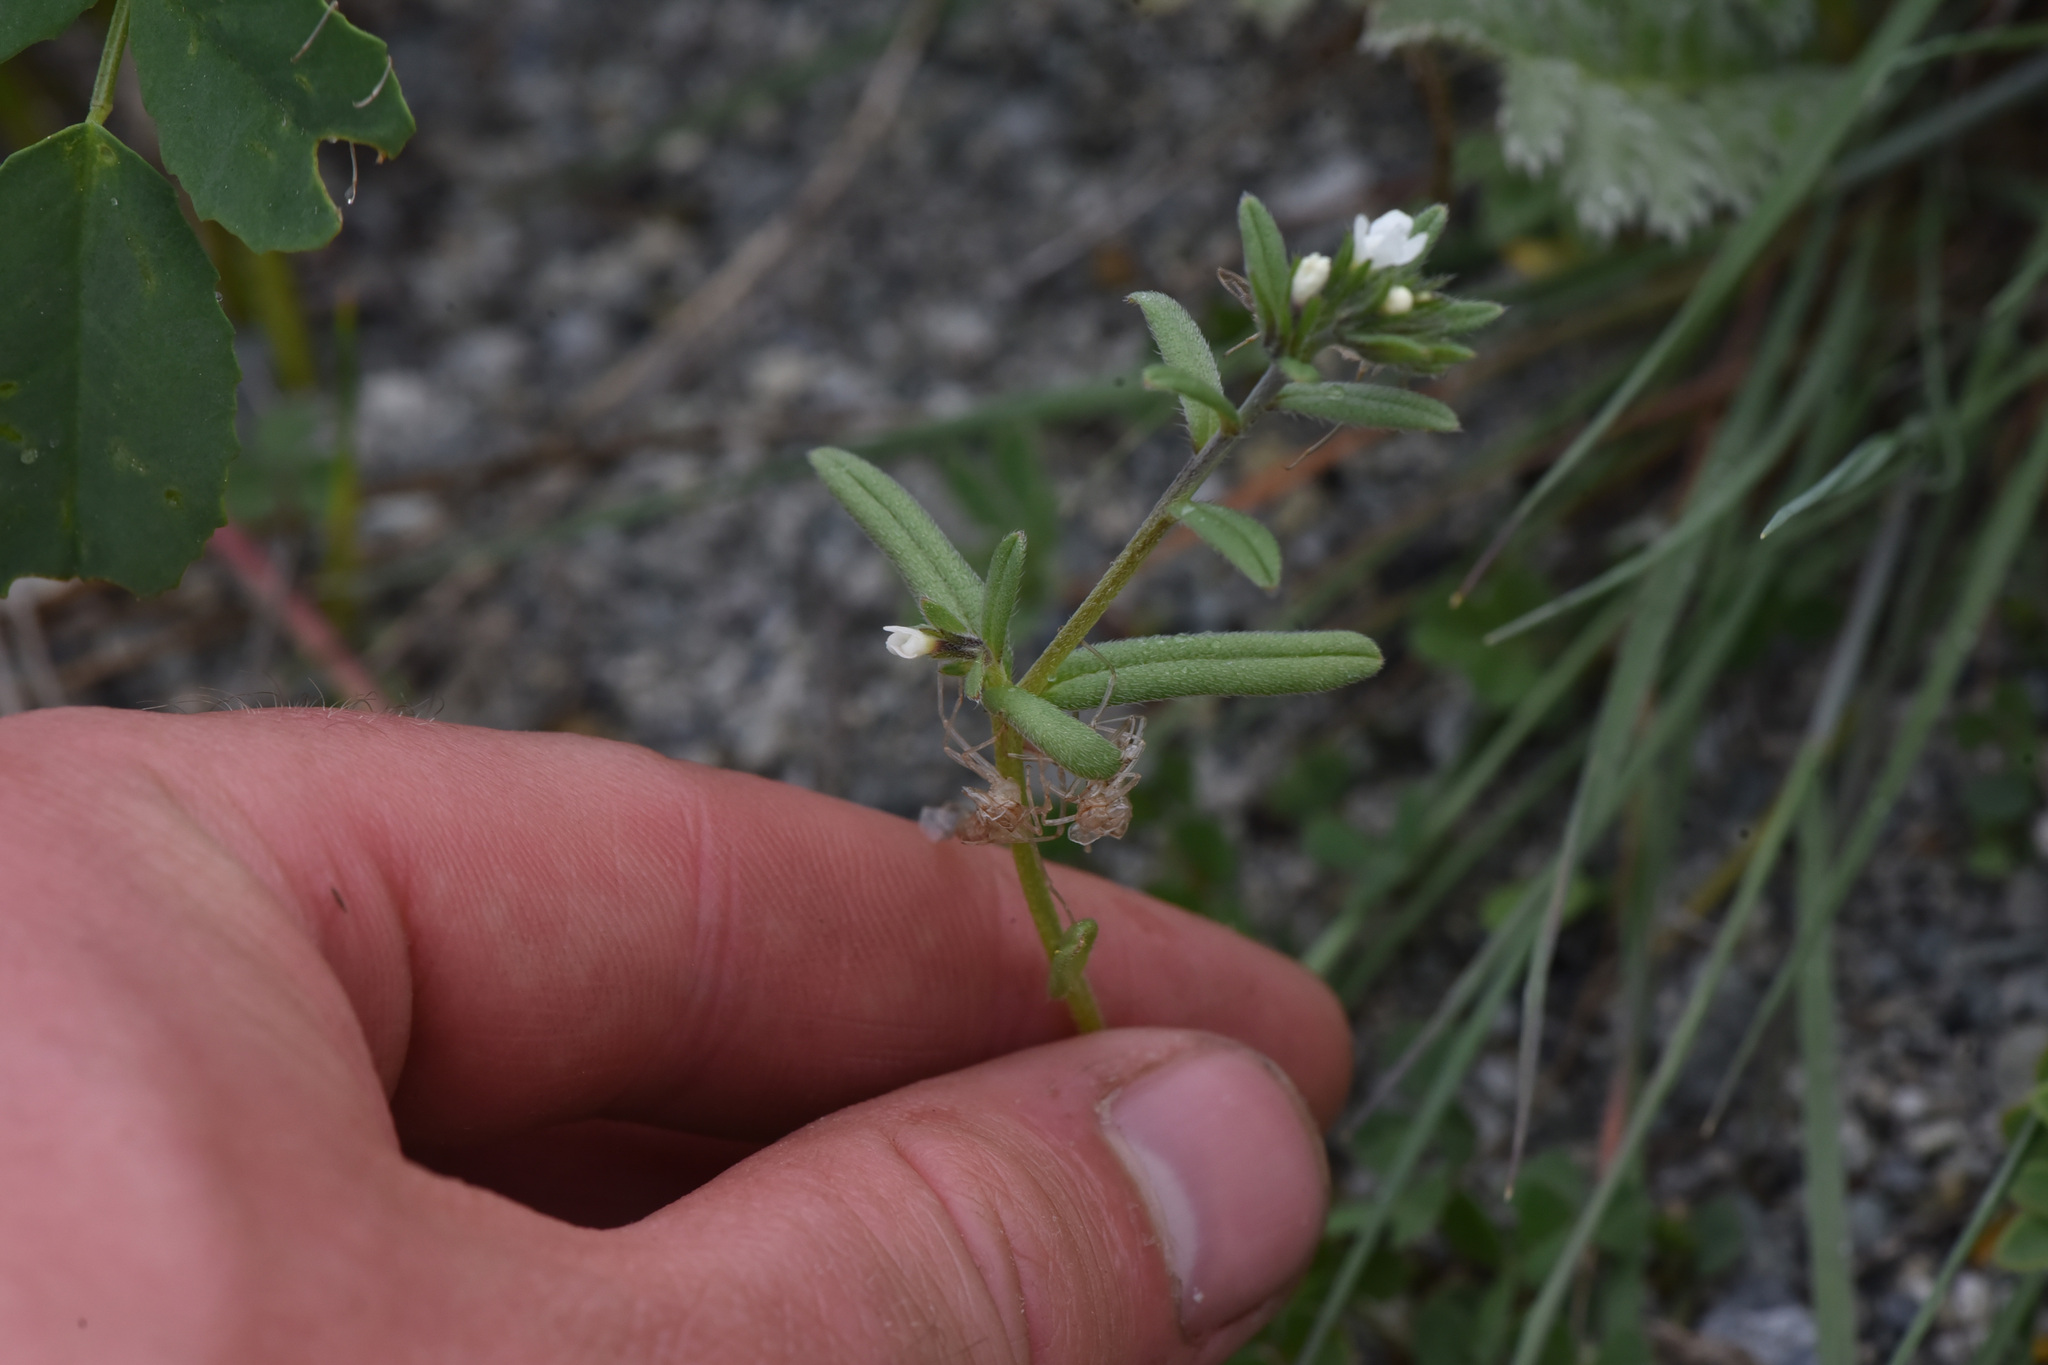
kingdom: Plantae
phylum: Tracheophyta
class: Magnoliopsida
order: Boraginales
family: Boraginaceae
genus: Buglossoides
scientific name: Buglossoides arvensis
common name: Corn gromwell
